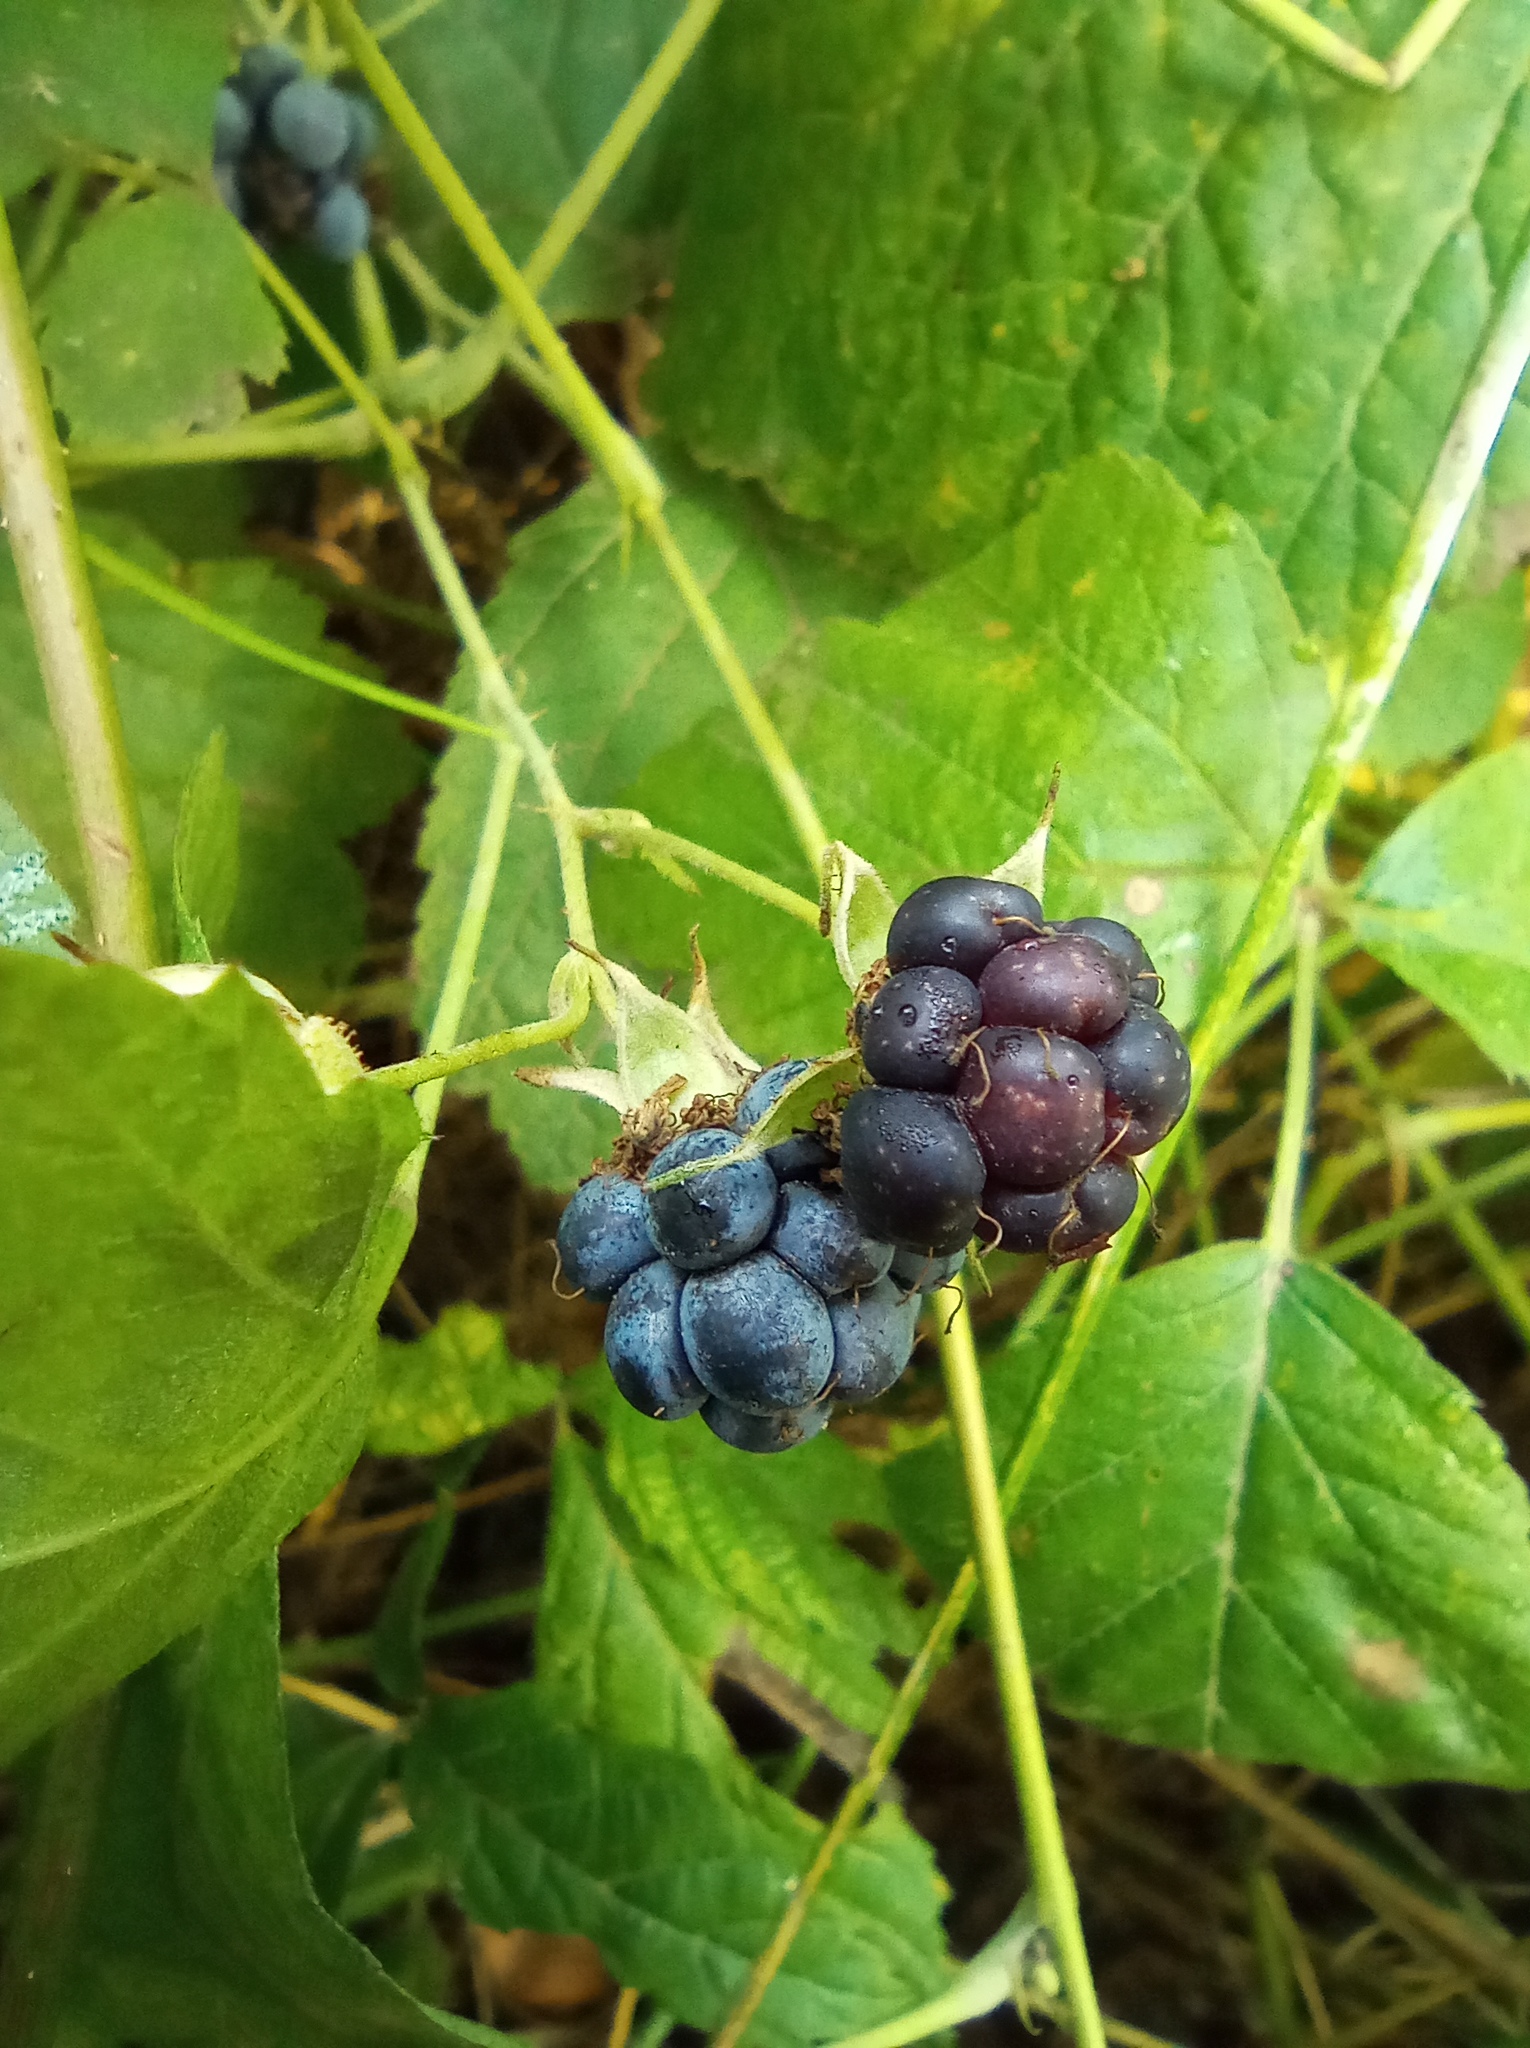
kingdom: Plantae
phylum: Tracheophyta
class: Magnoliopsida
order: Rosales
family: Rosaceae
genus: Rubus
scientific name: Rubus caesius
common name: Dewberry
